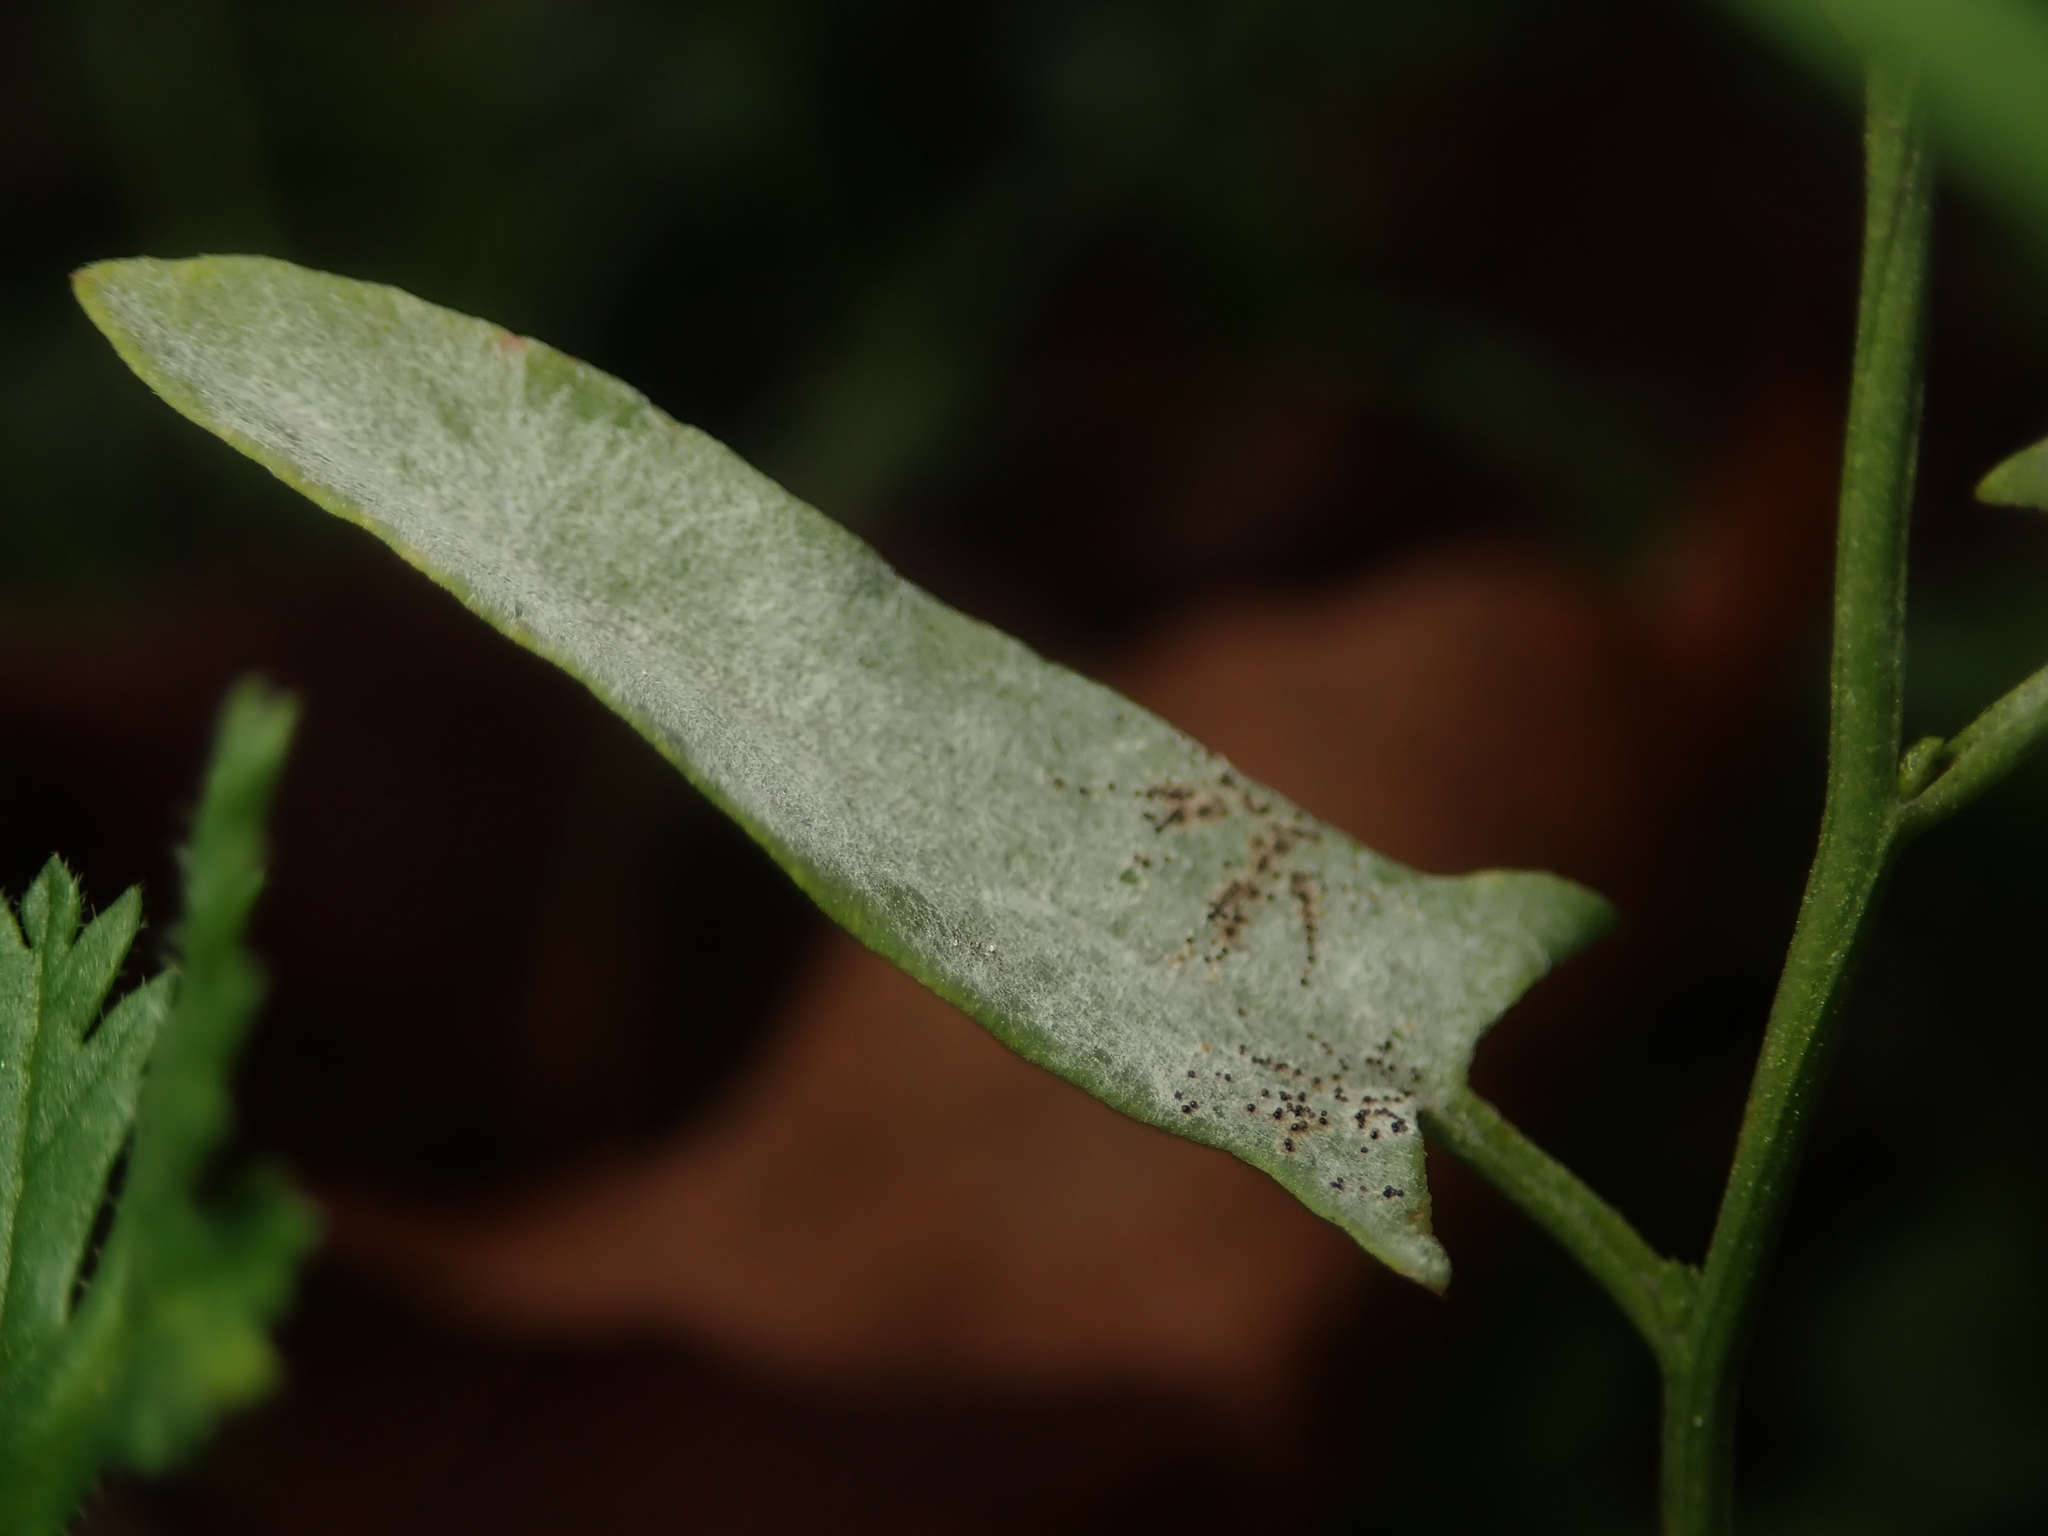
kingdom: Fungi
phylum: Ascomycota
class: Leotiomycetes
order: Helotiales
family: Erysiphaceae
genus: Erysiphe
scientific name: Erysiphe convolvuli
